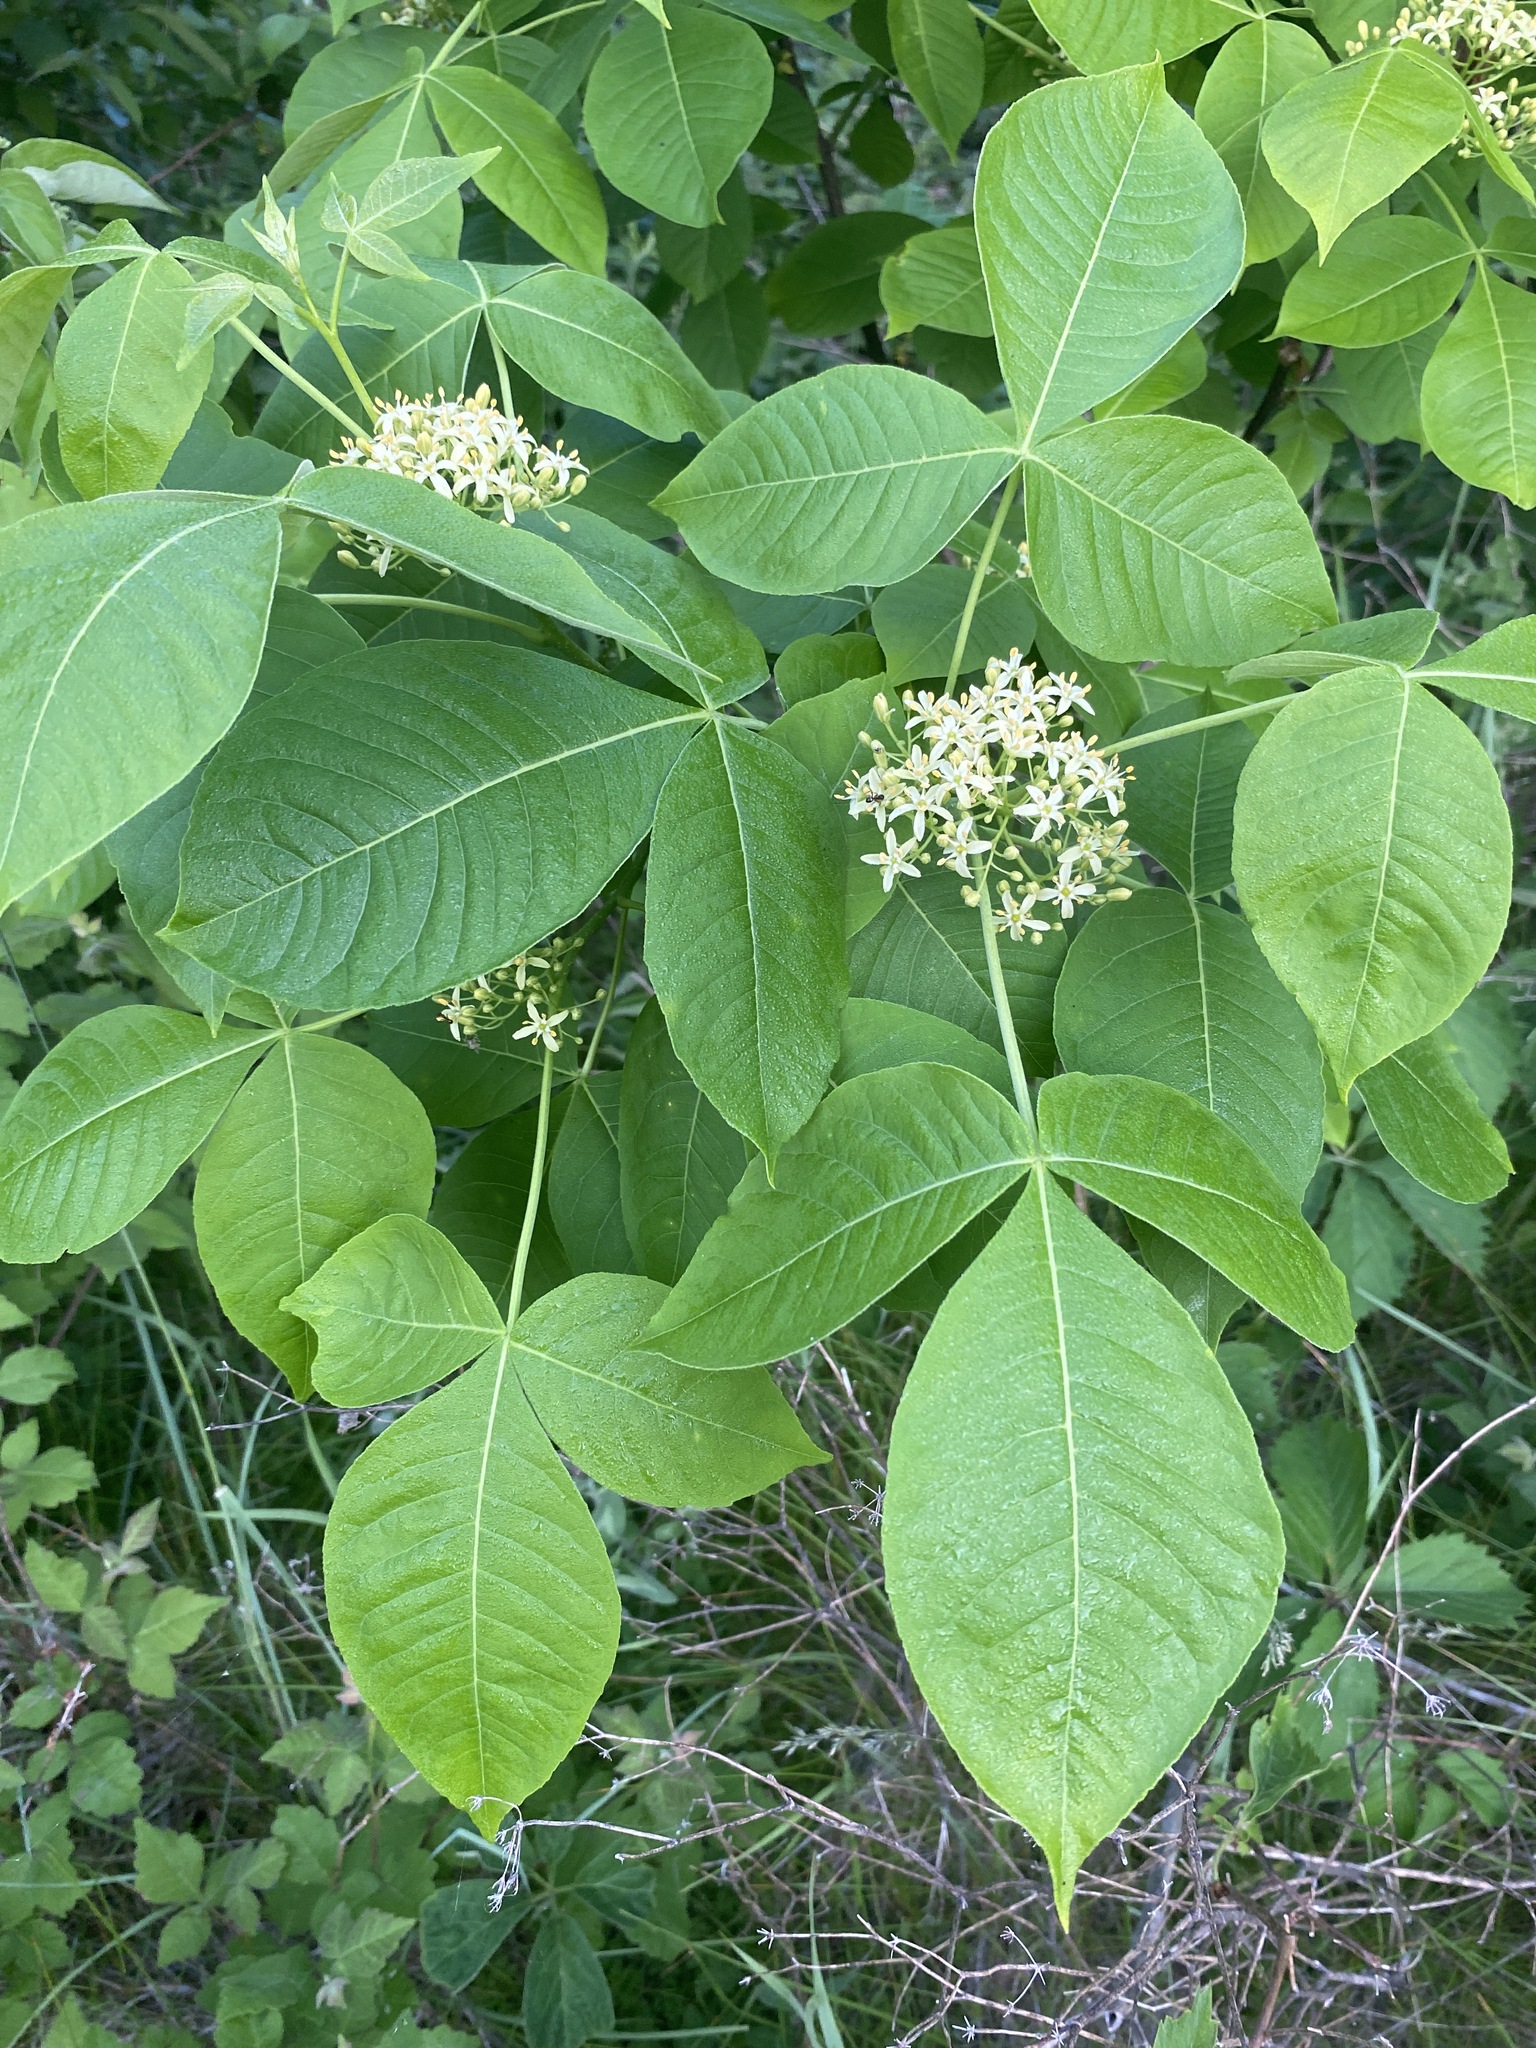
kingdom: Plantae
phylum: Tracheophyta
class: Magnoliopsida
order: Sapindales
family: Rutaceae
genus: Ptelea
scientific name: Ptelea trifoliata
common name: Common hop-tree
